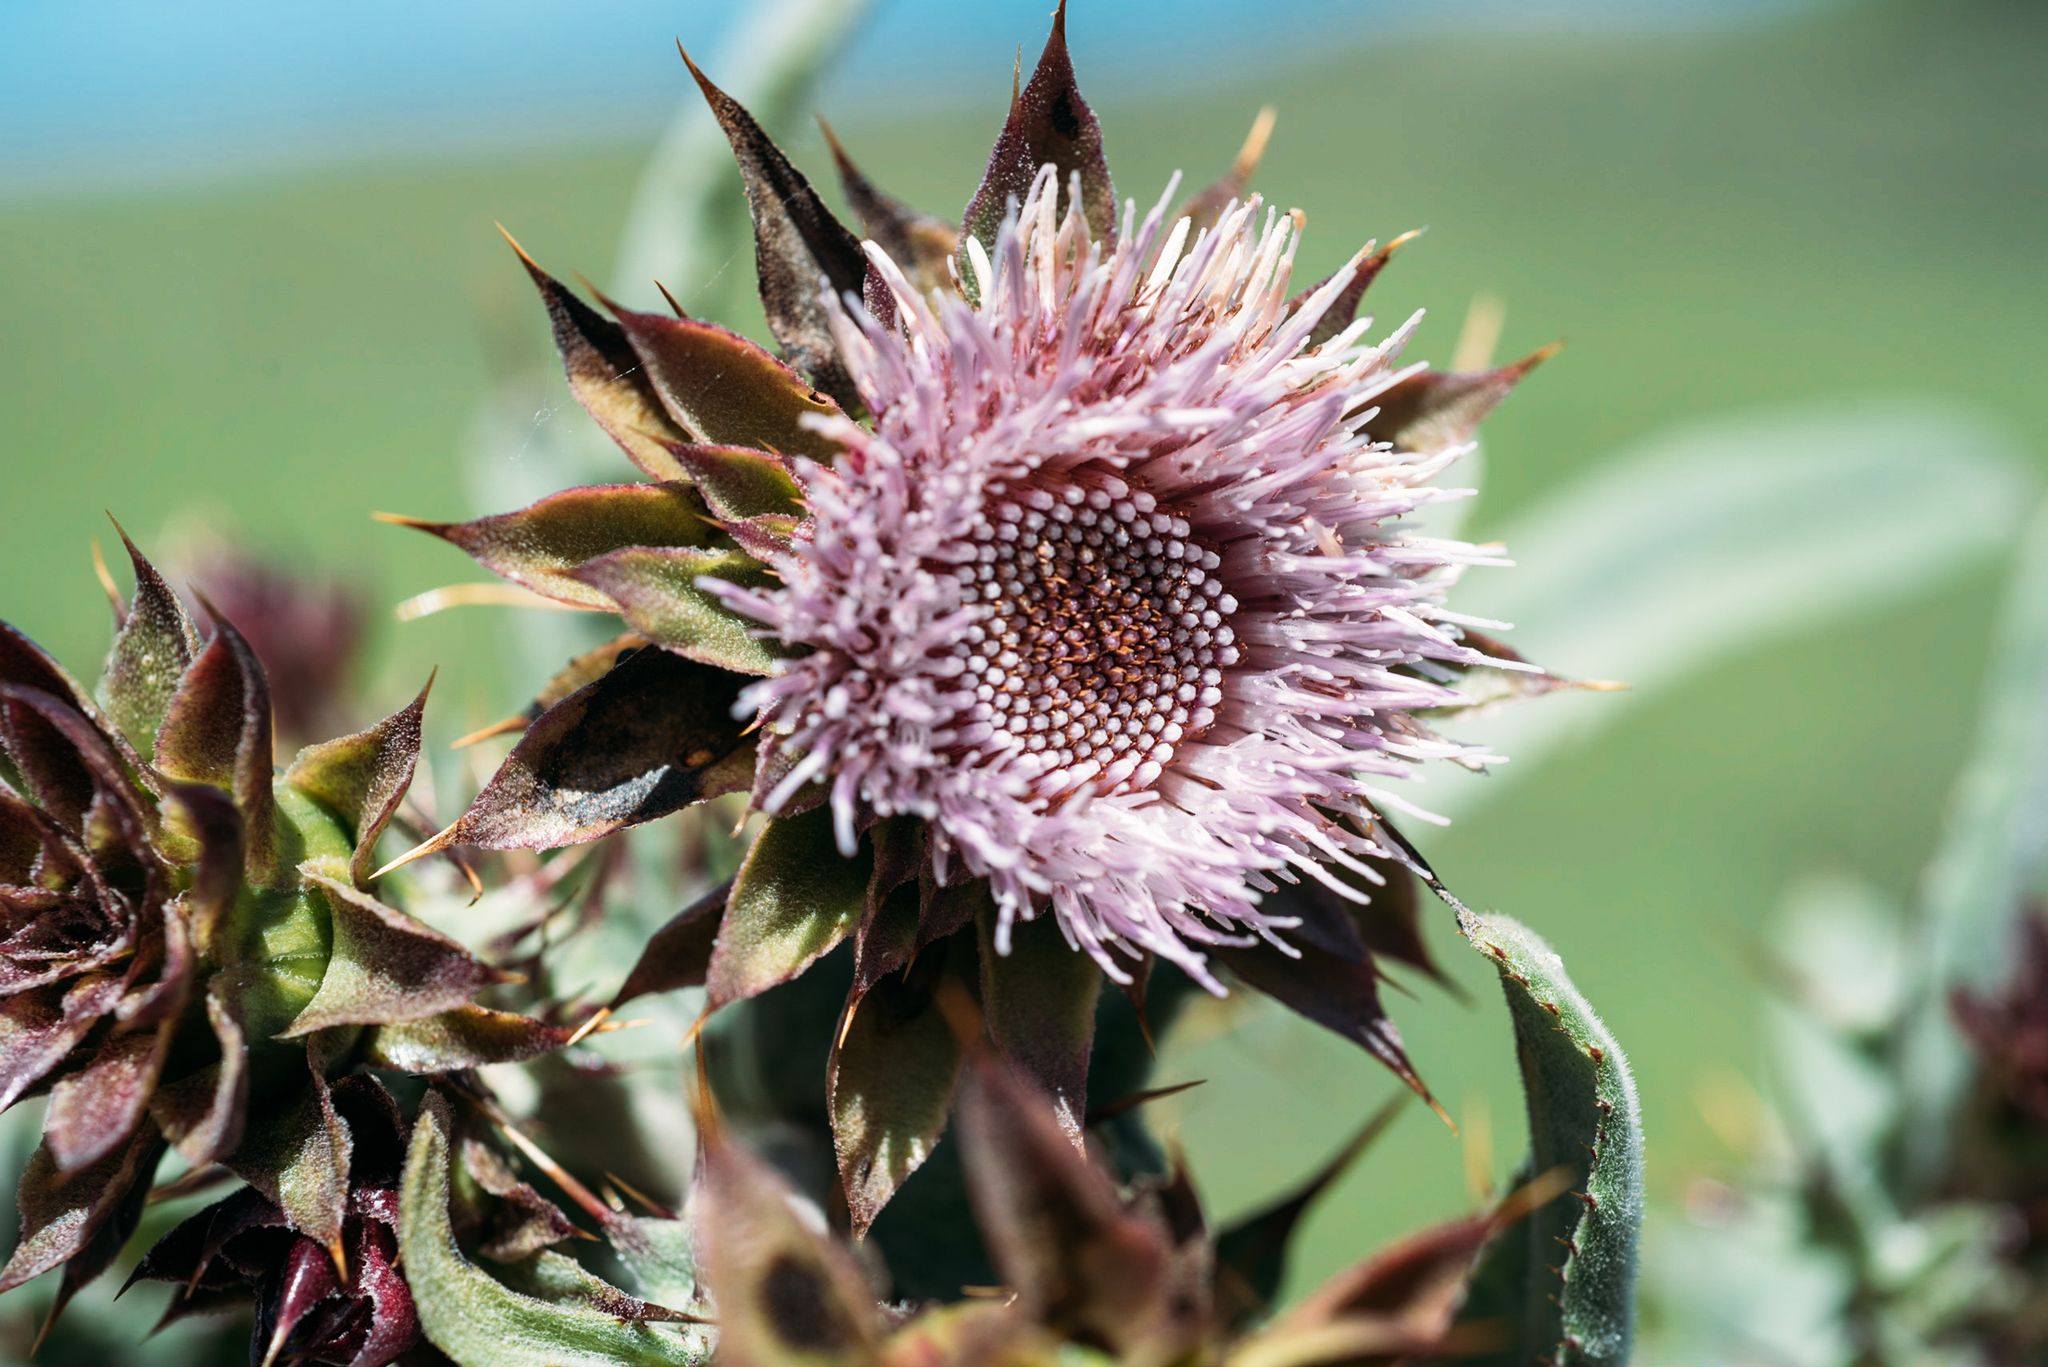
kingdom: Plantae
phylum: Tracheophyta
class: Magnoliopsida
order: Asterales
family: Asteraceae
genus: Cirsium
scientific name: Cirsium fontinale
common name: Fountain thistle
